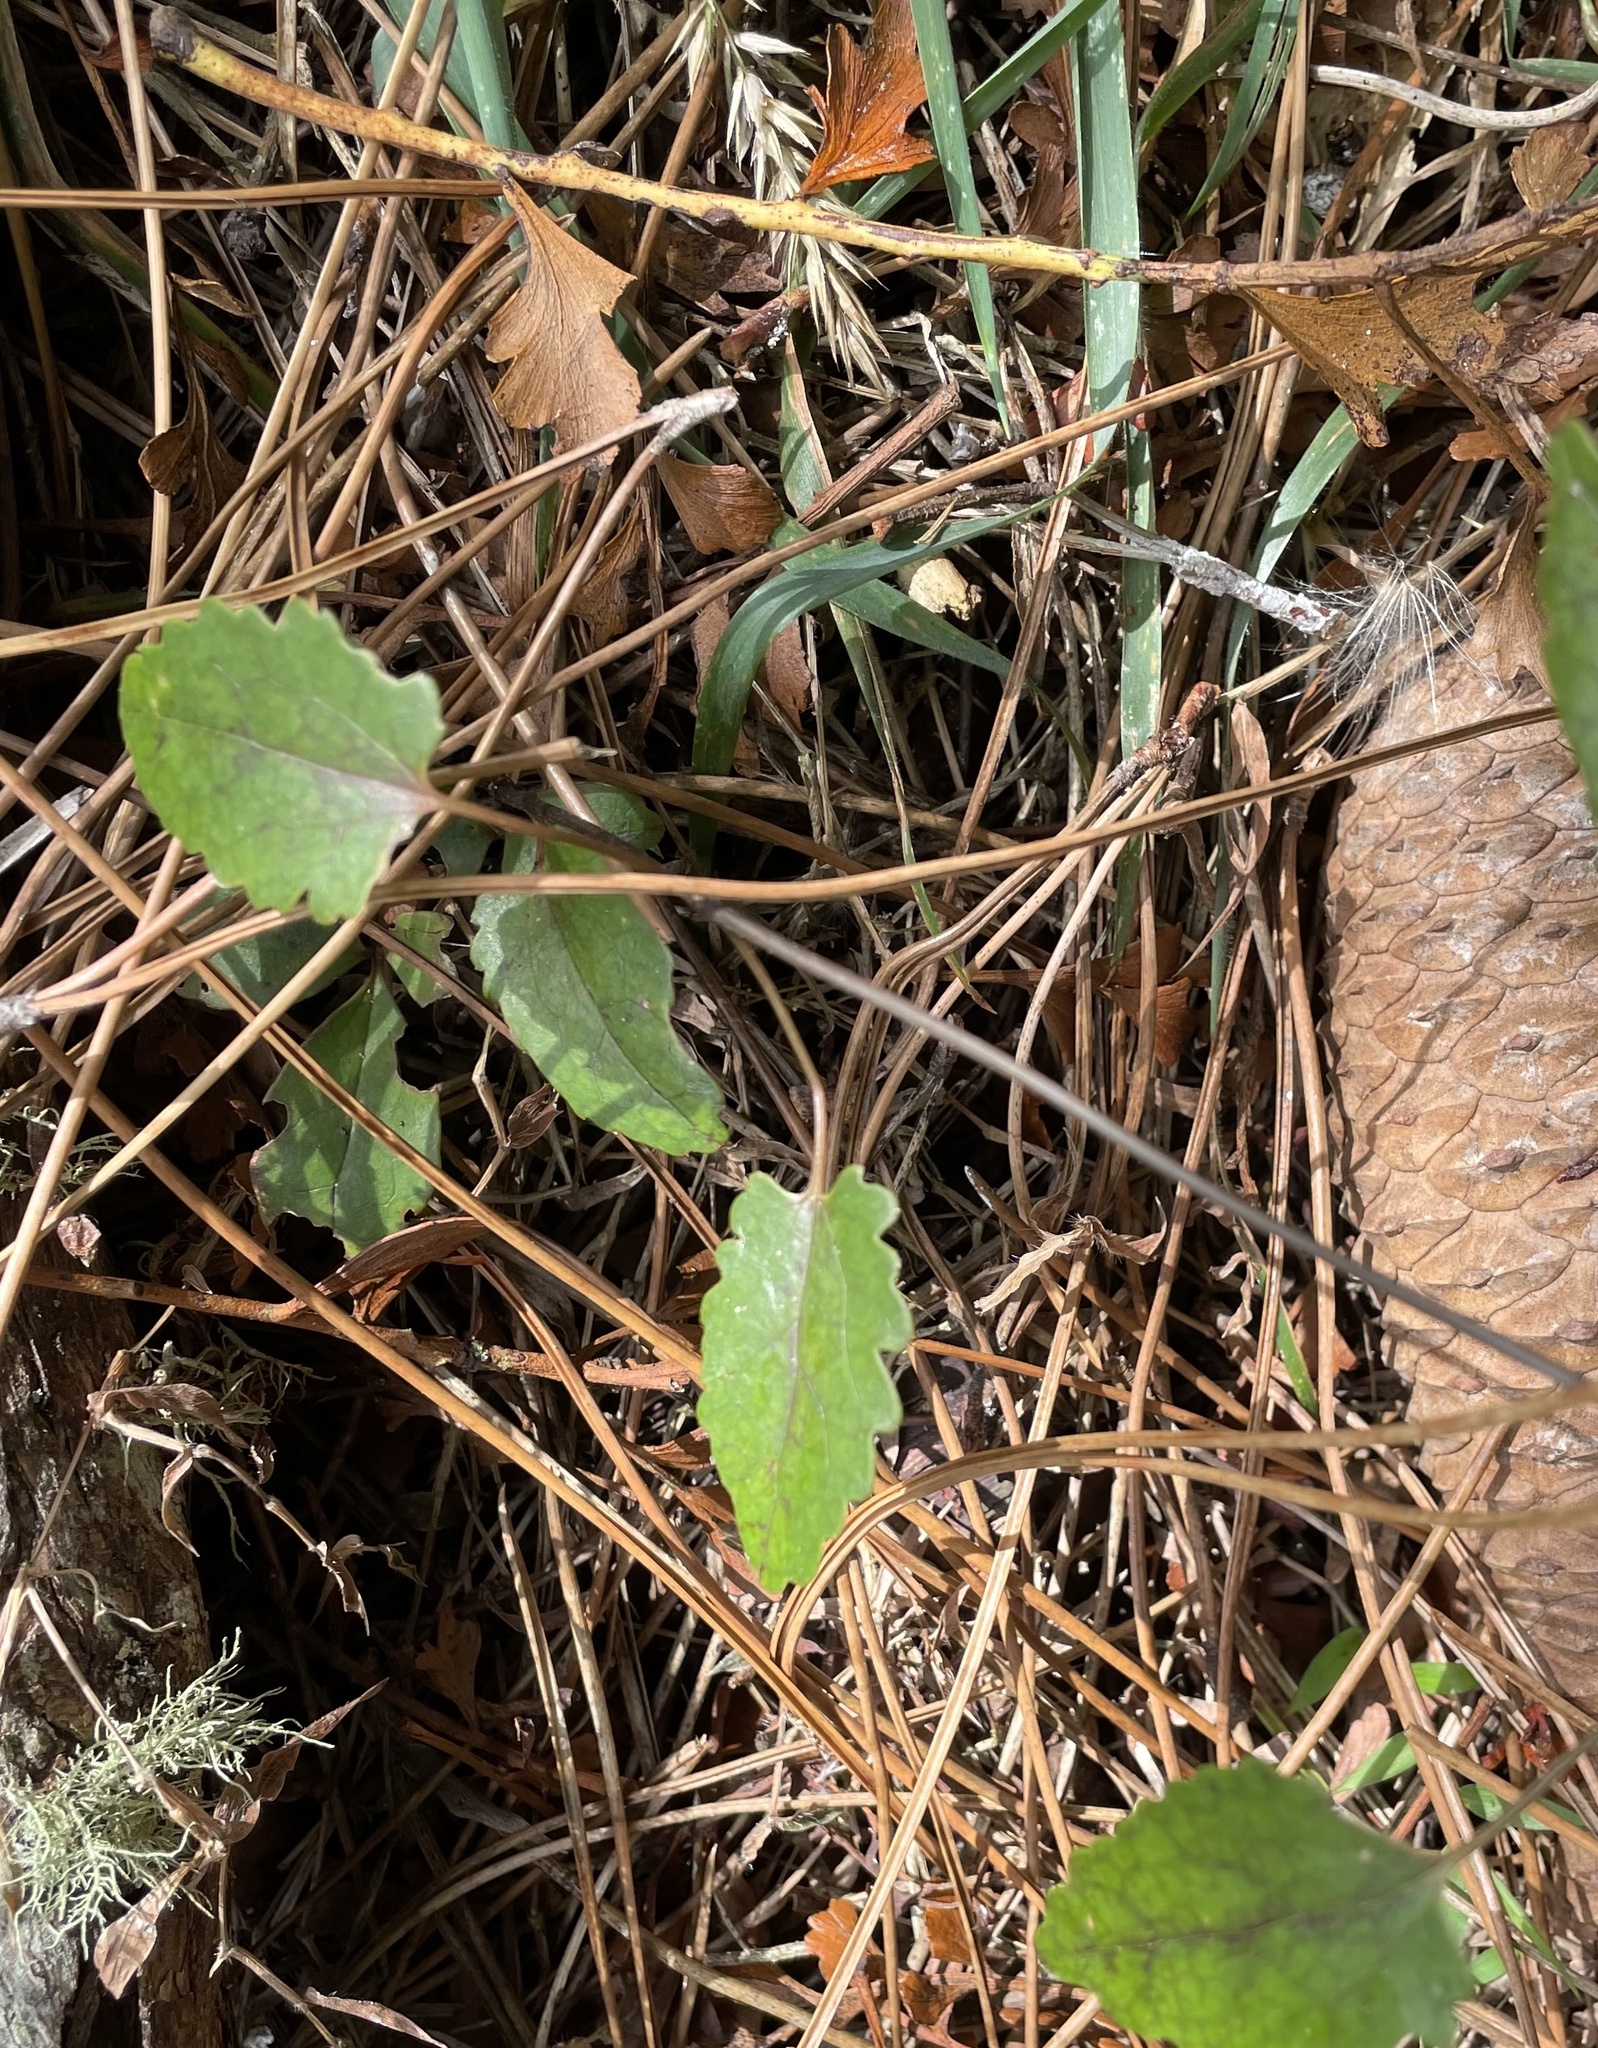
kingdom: Plantae
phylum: Tracheophyta
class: Magnoliopsida
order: Ranunculales
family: Ranunculaceae
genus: Clematis
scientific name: Clematis paniculata
